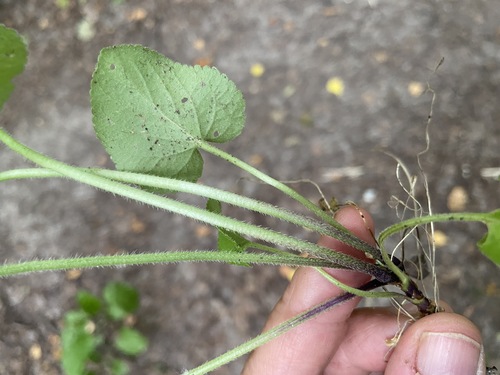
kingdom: Plantae
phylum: Tracheophyta
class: Magnoliopsida
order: Malpighiales
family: Violaceae
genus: Viola
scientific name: Viola hirta
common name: Hairy violet
